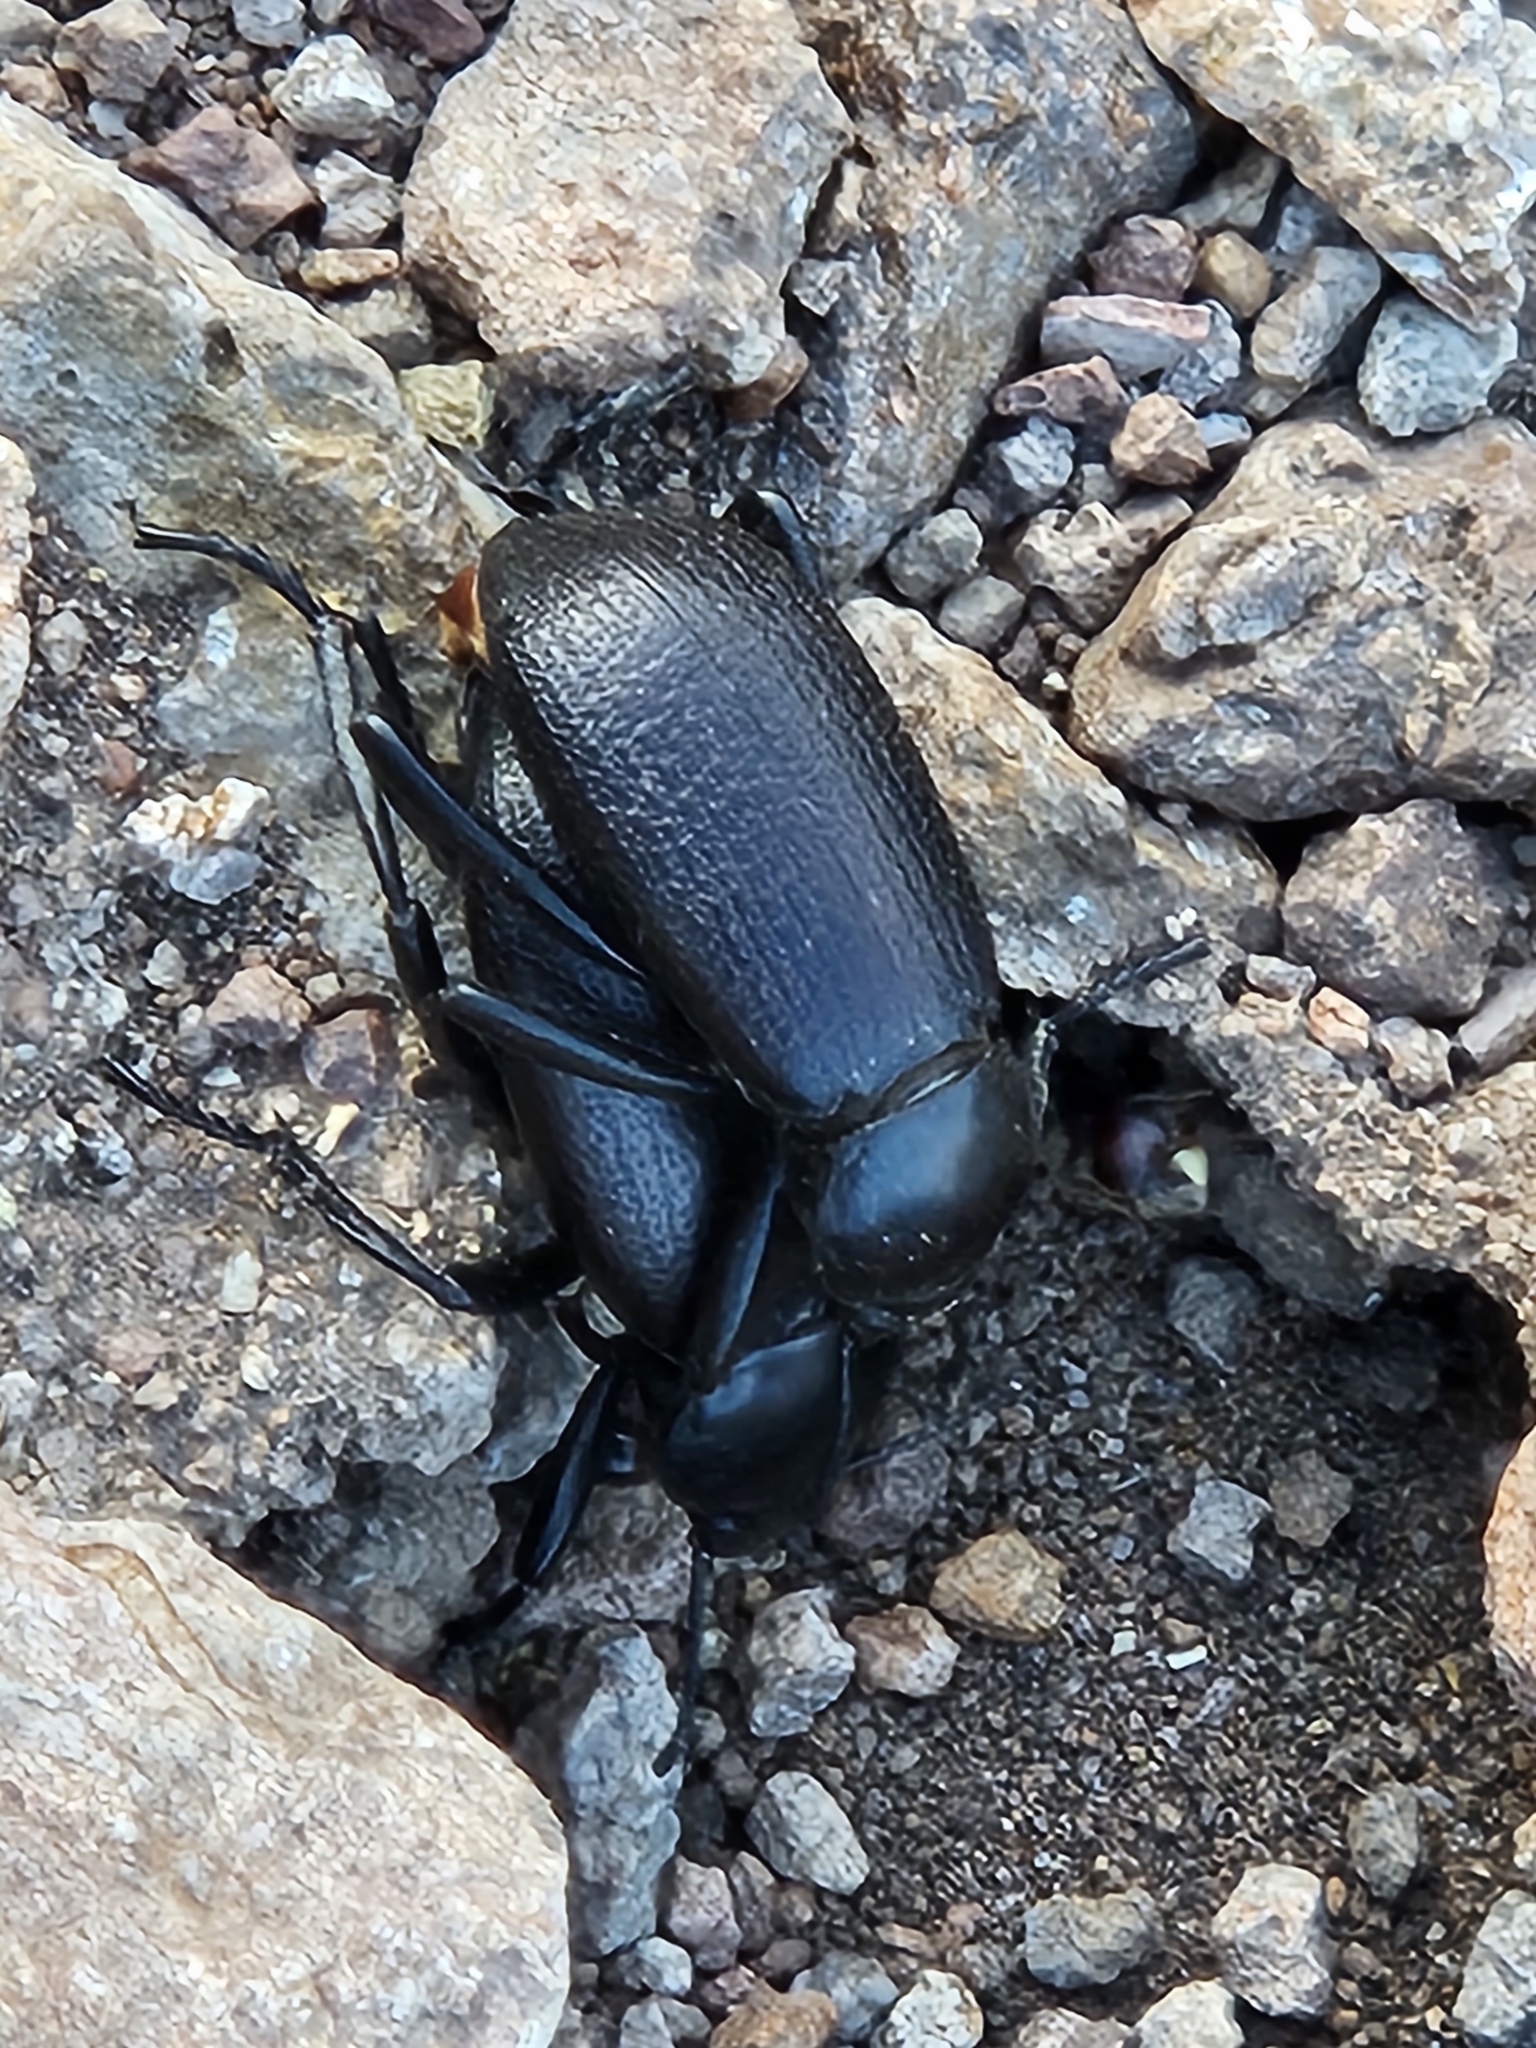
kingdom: Animalia
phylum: Arthropoda
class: Insecta
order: Coleoptera
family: Tenebrionidae
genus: Eleodes
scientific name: Eleodes obscura
